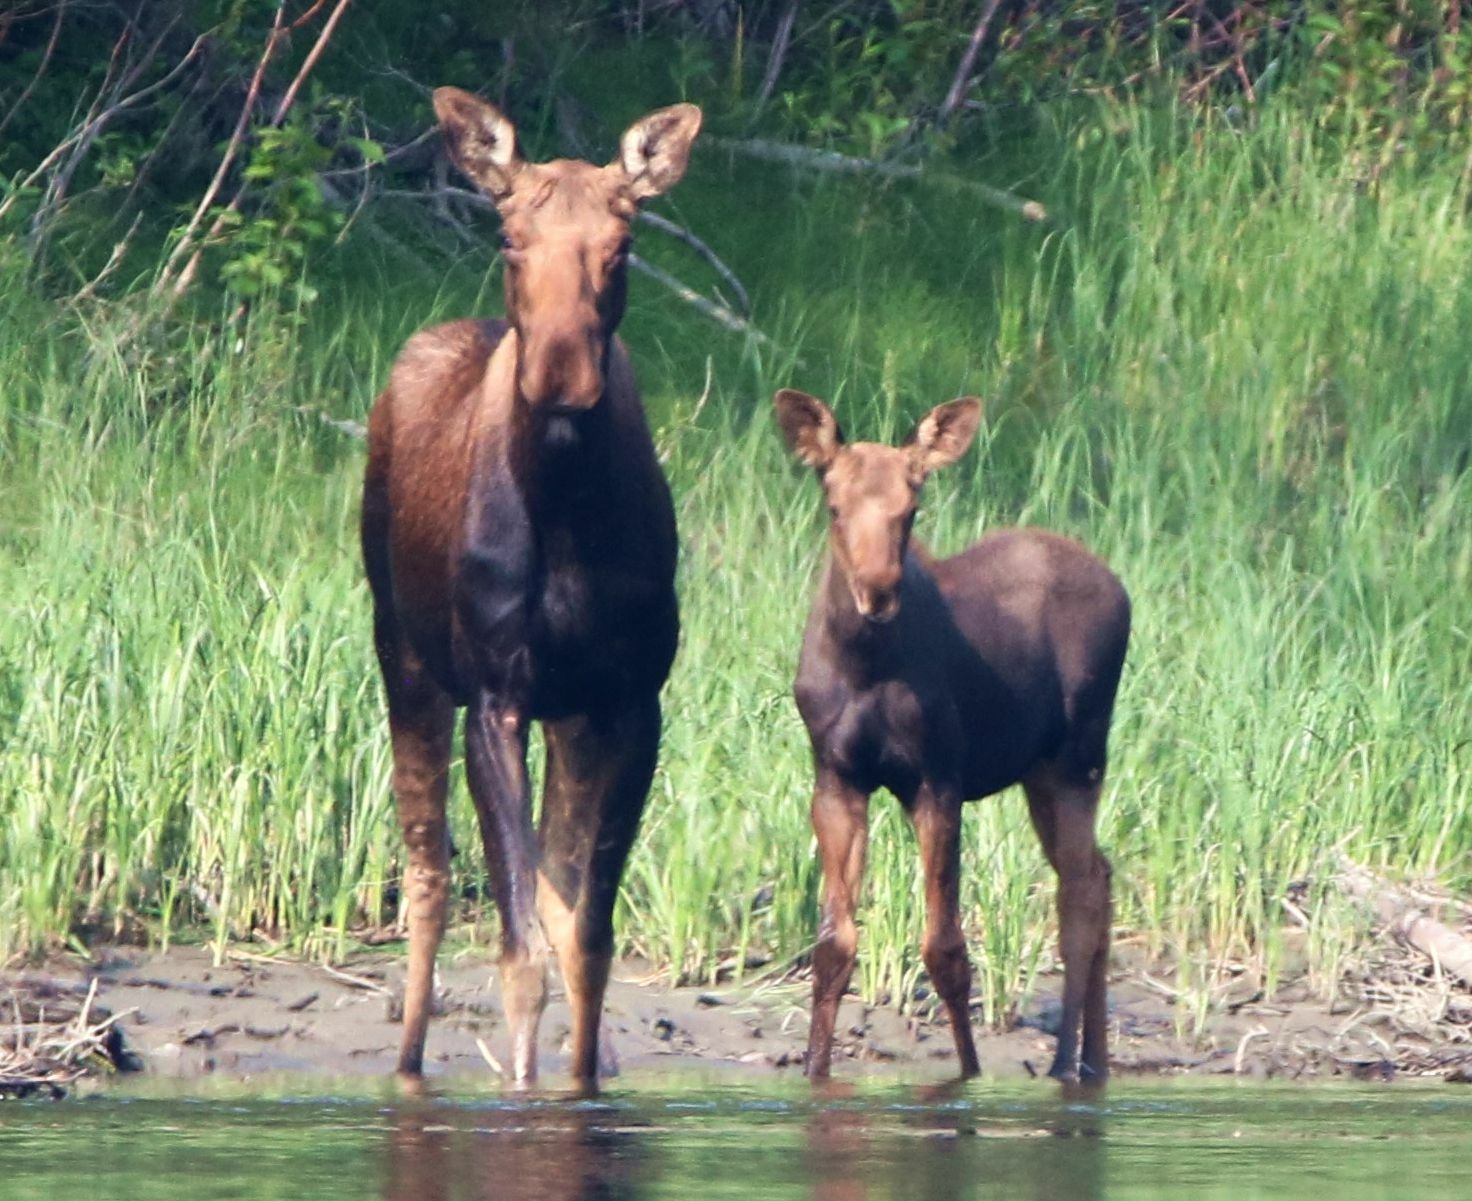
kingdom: Animalia
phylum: Chordata
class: Mammalia
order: Artiodactyla
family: Cervidae
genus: Alces
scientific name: Alces alces
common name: Moose
